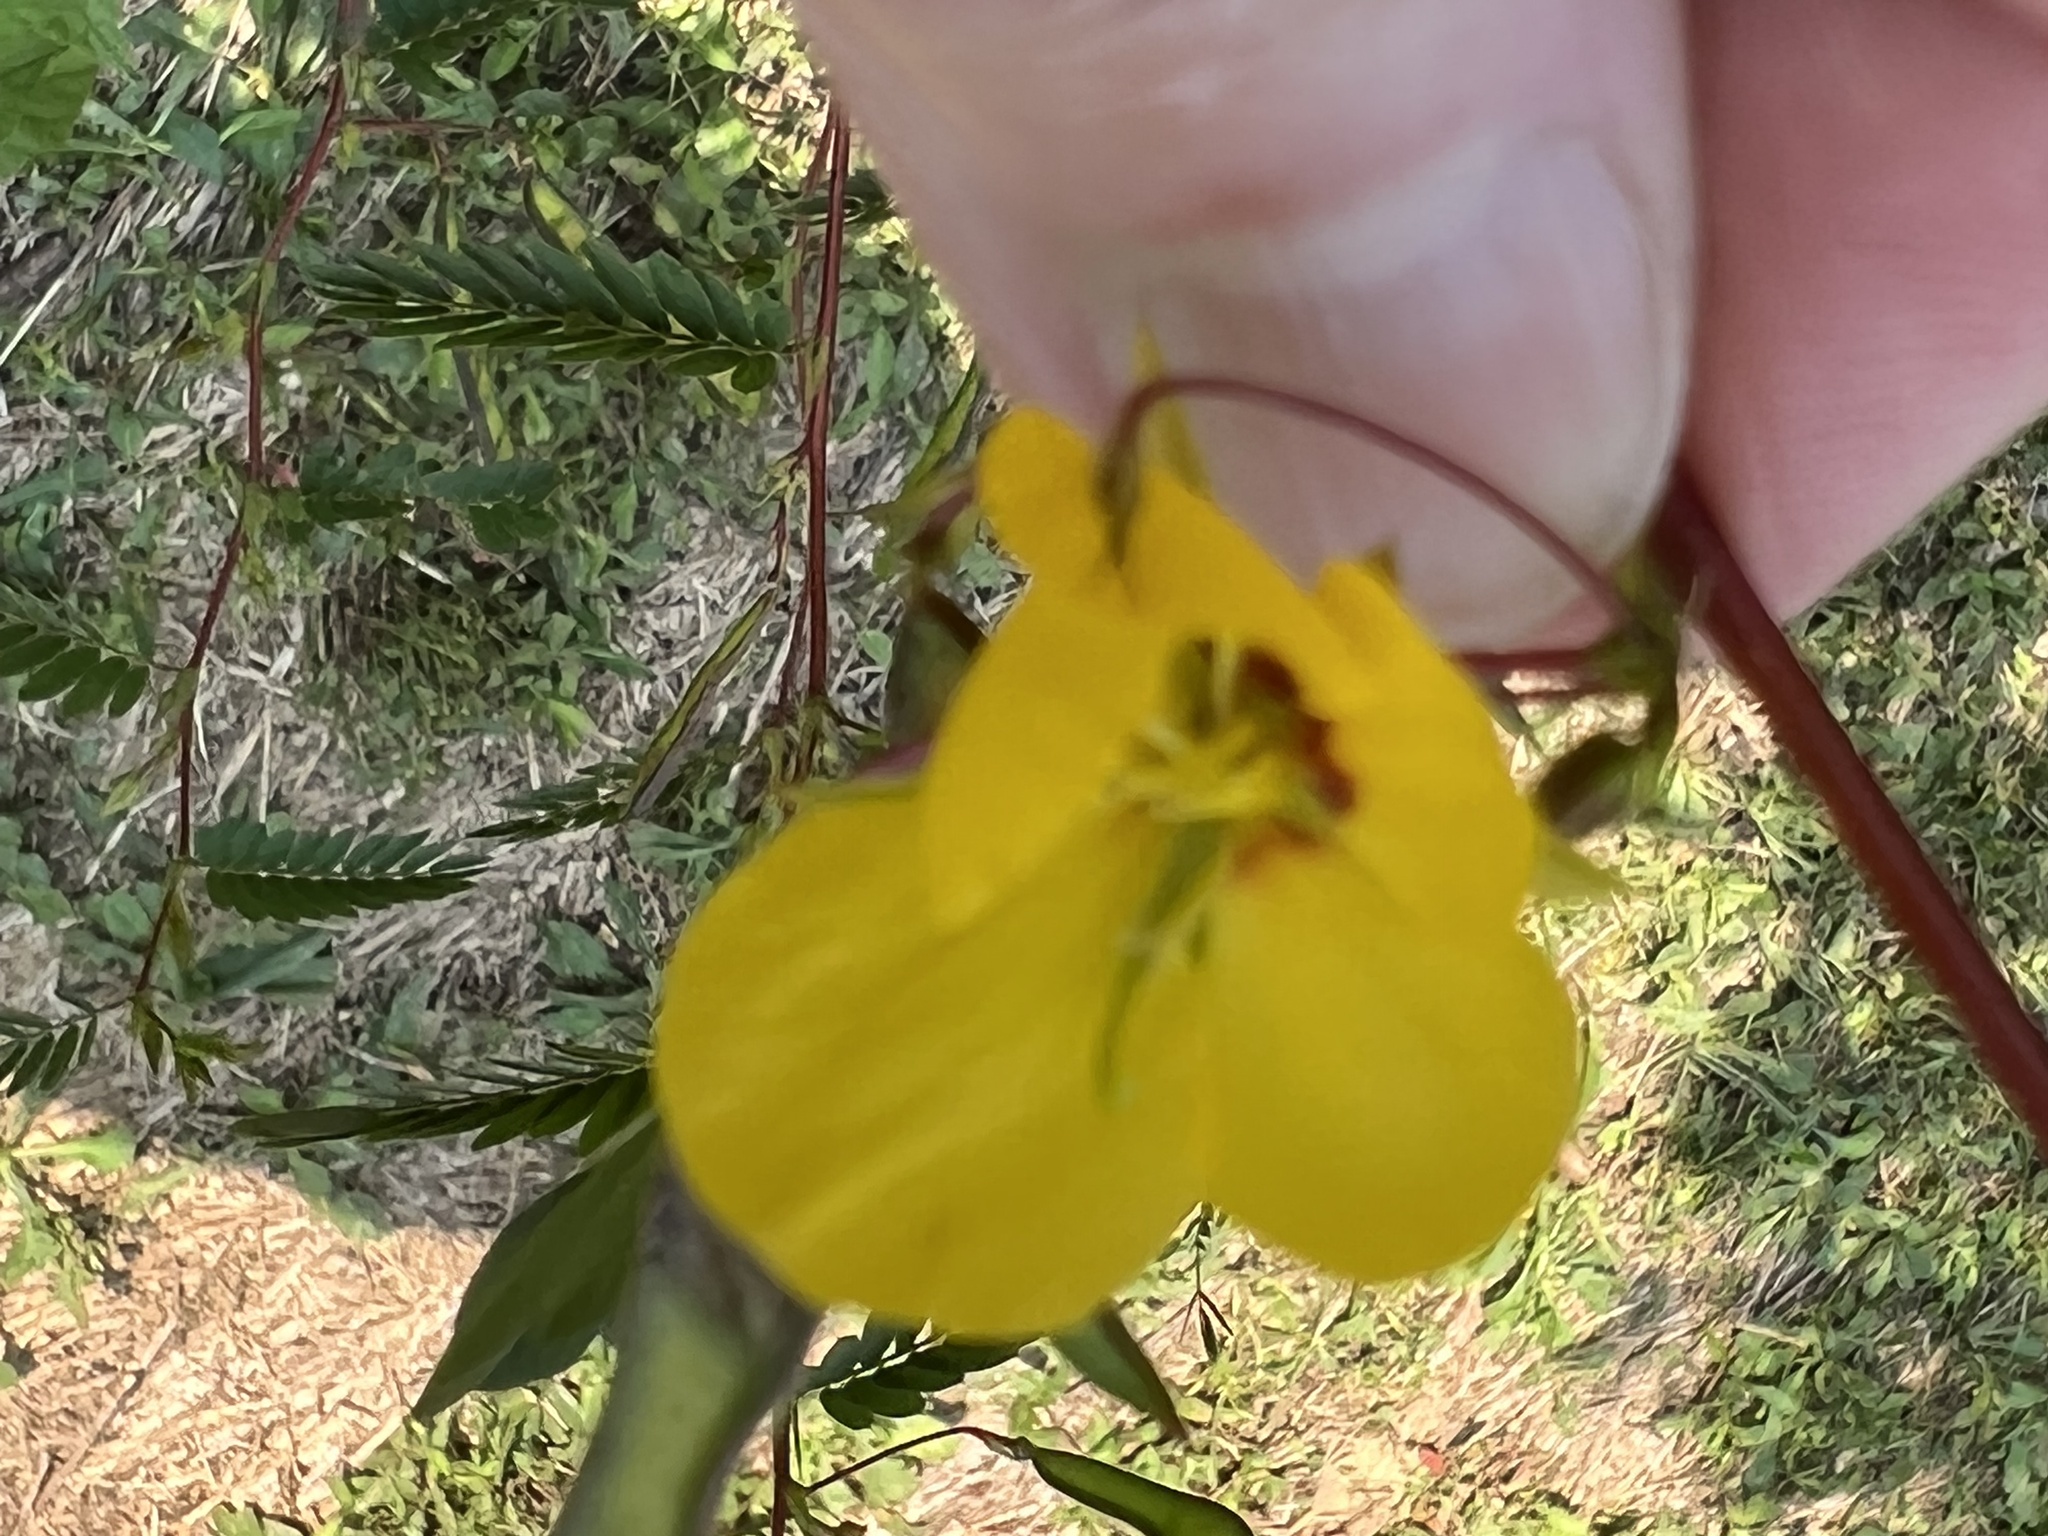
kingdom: Plantae
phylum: Tracheophyta
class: Magnoliopsida
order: Fabales
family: Fabaceae
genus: Chamaecrista
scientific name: Chamaecrista fasciculata
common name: Golden cassia
